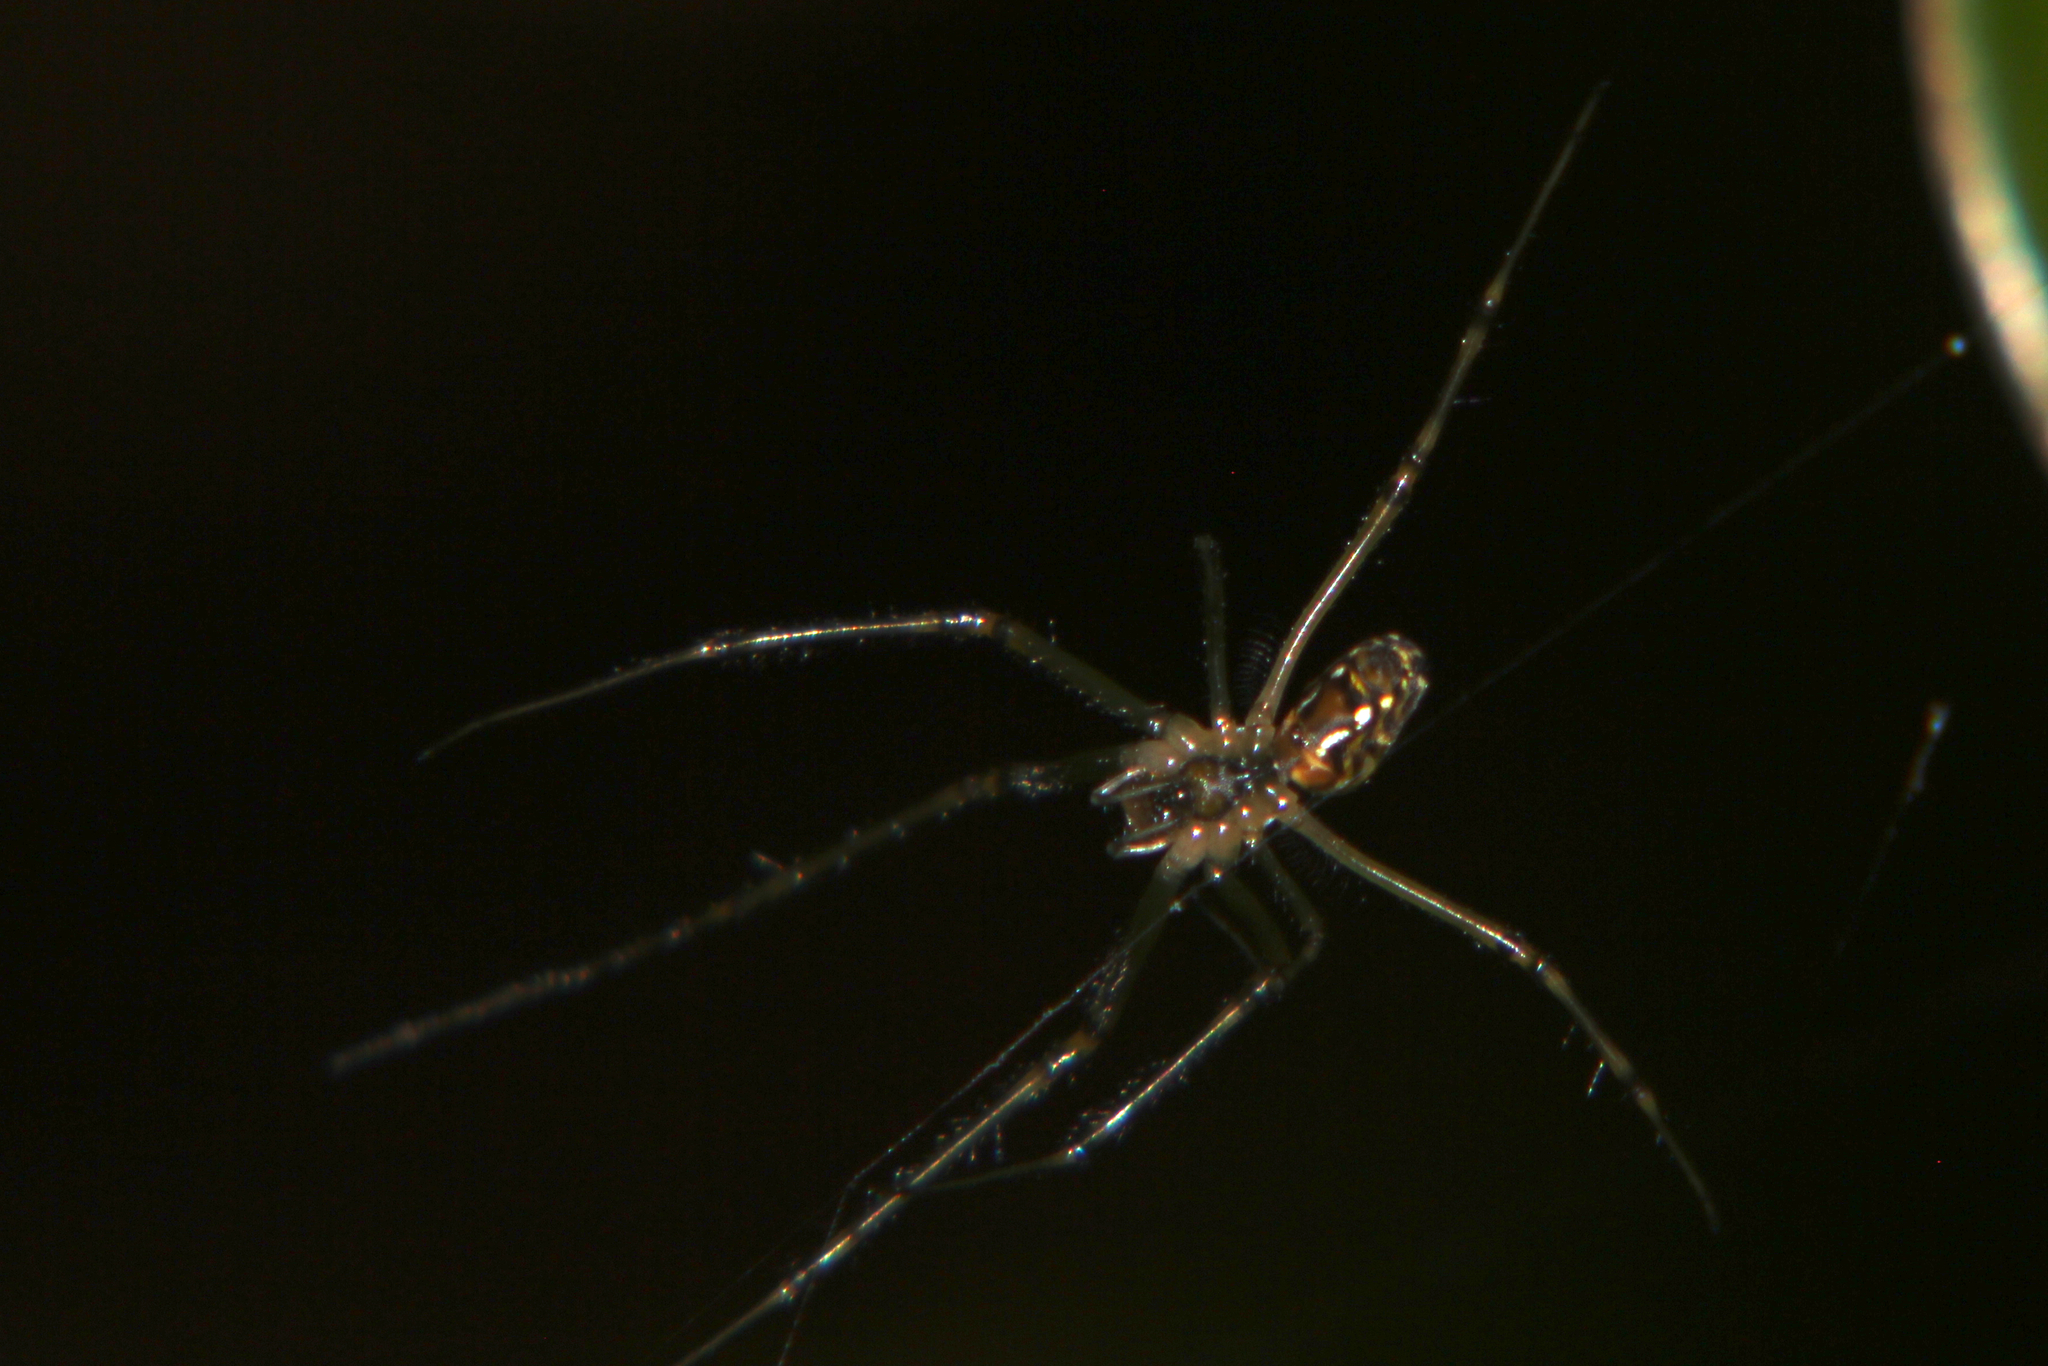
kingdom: Animalia
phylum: Arthropoda
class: Arachnida
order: Araneae
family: Tetragnathidae
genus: Leucauge
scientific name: Leucauge dromedaria
